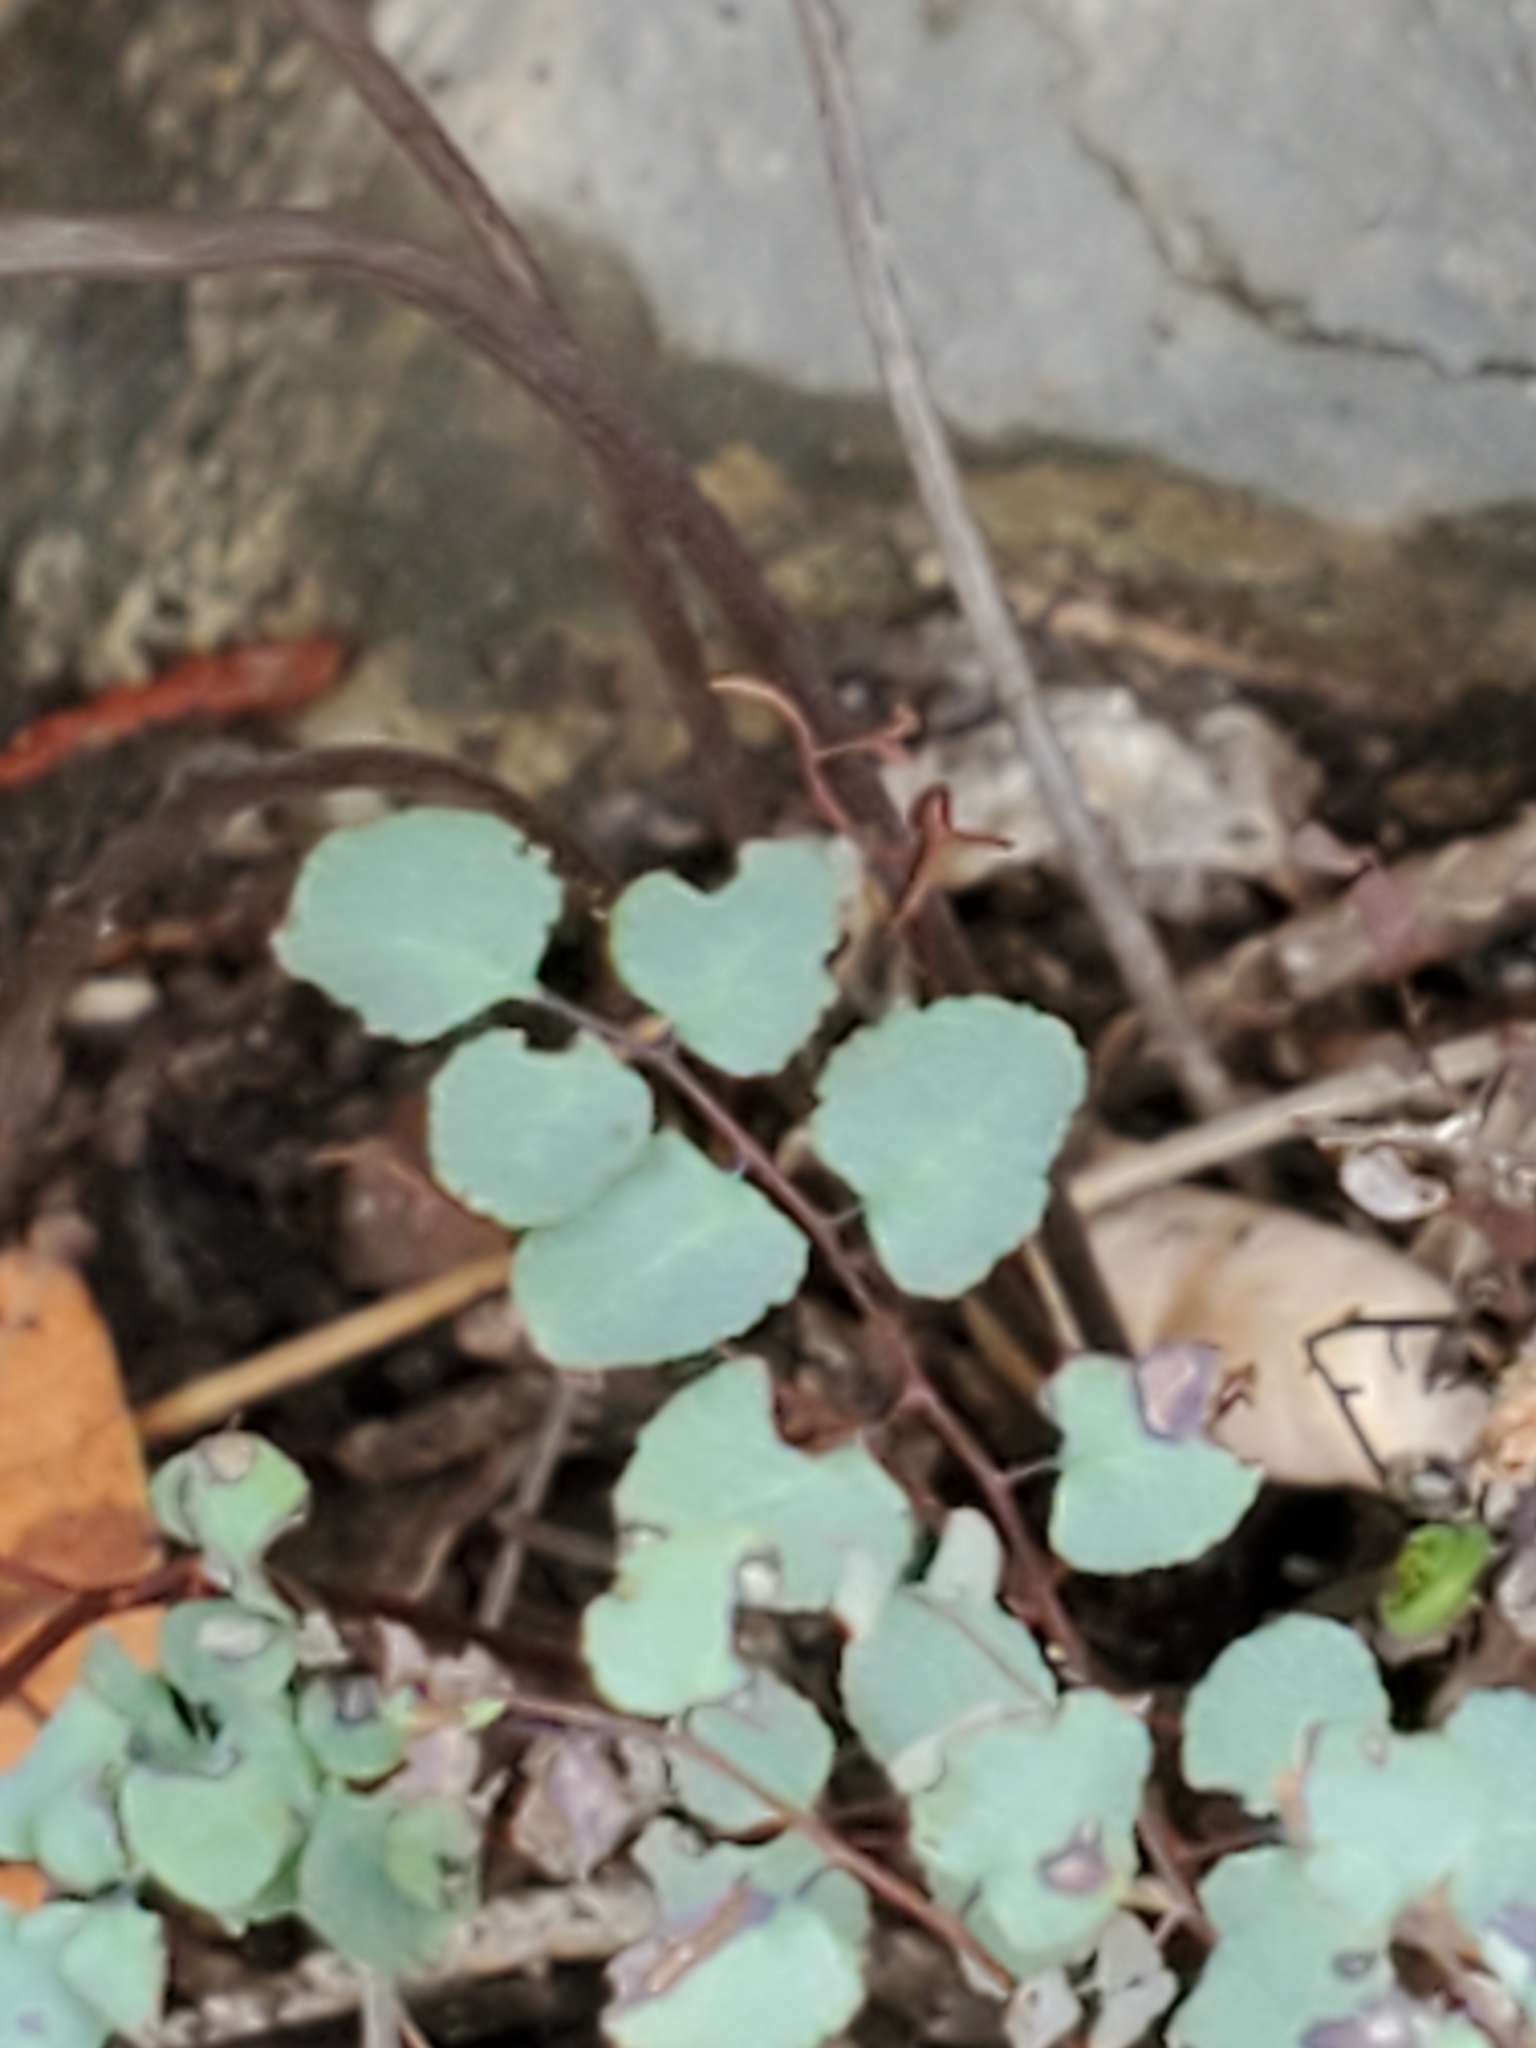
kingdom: Plantae
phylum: Tracheophyta
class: Polypodiopsida
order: Polypodiales
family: Pteridaceae
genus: Argyrochosma
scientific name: Argyrochosma microphylla
